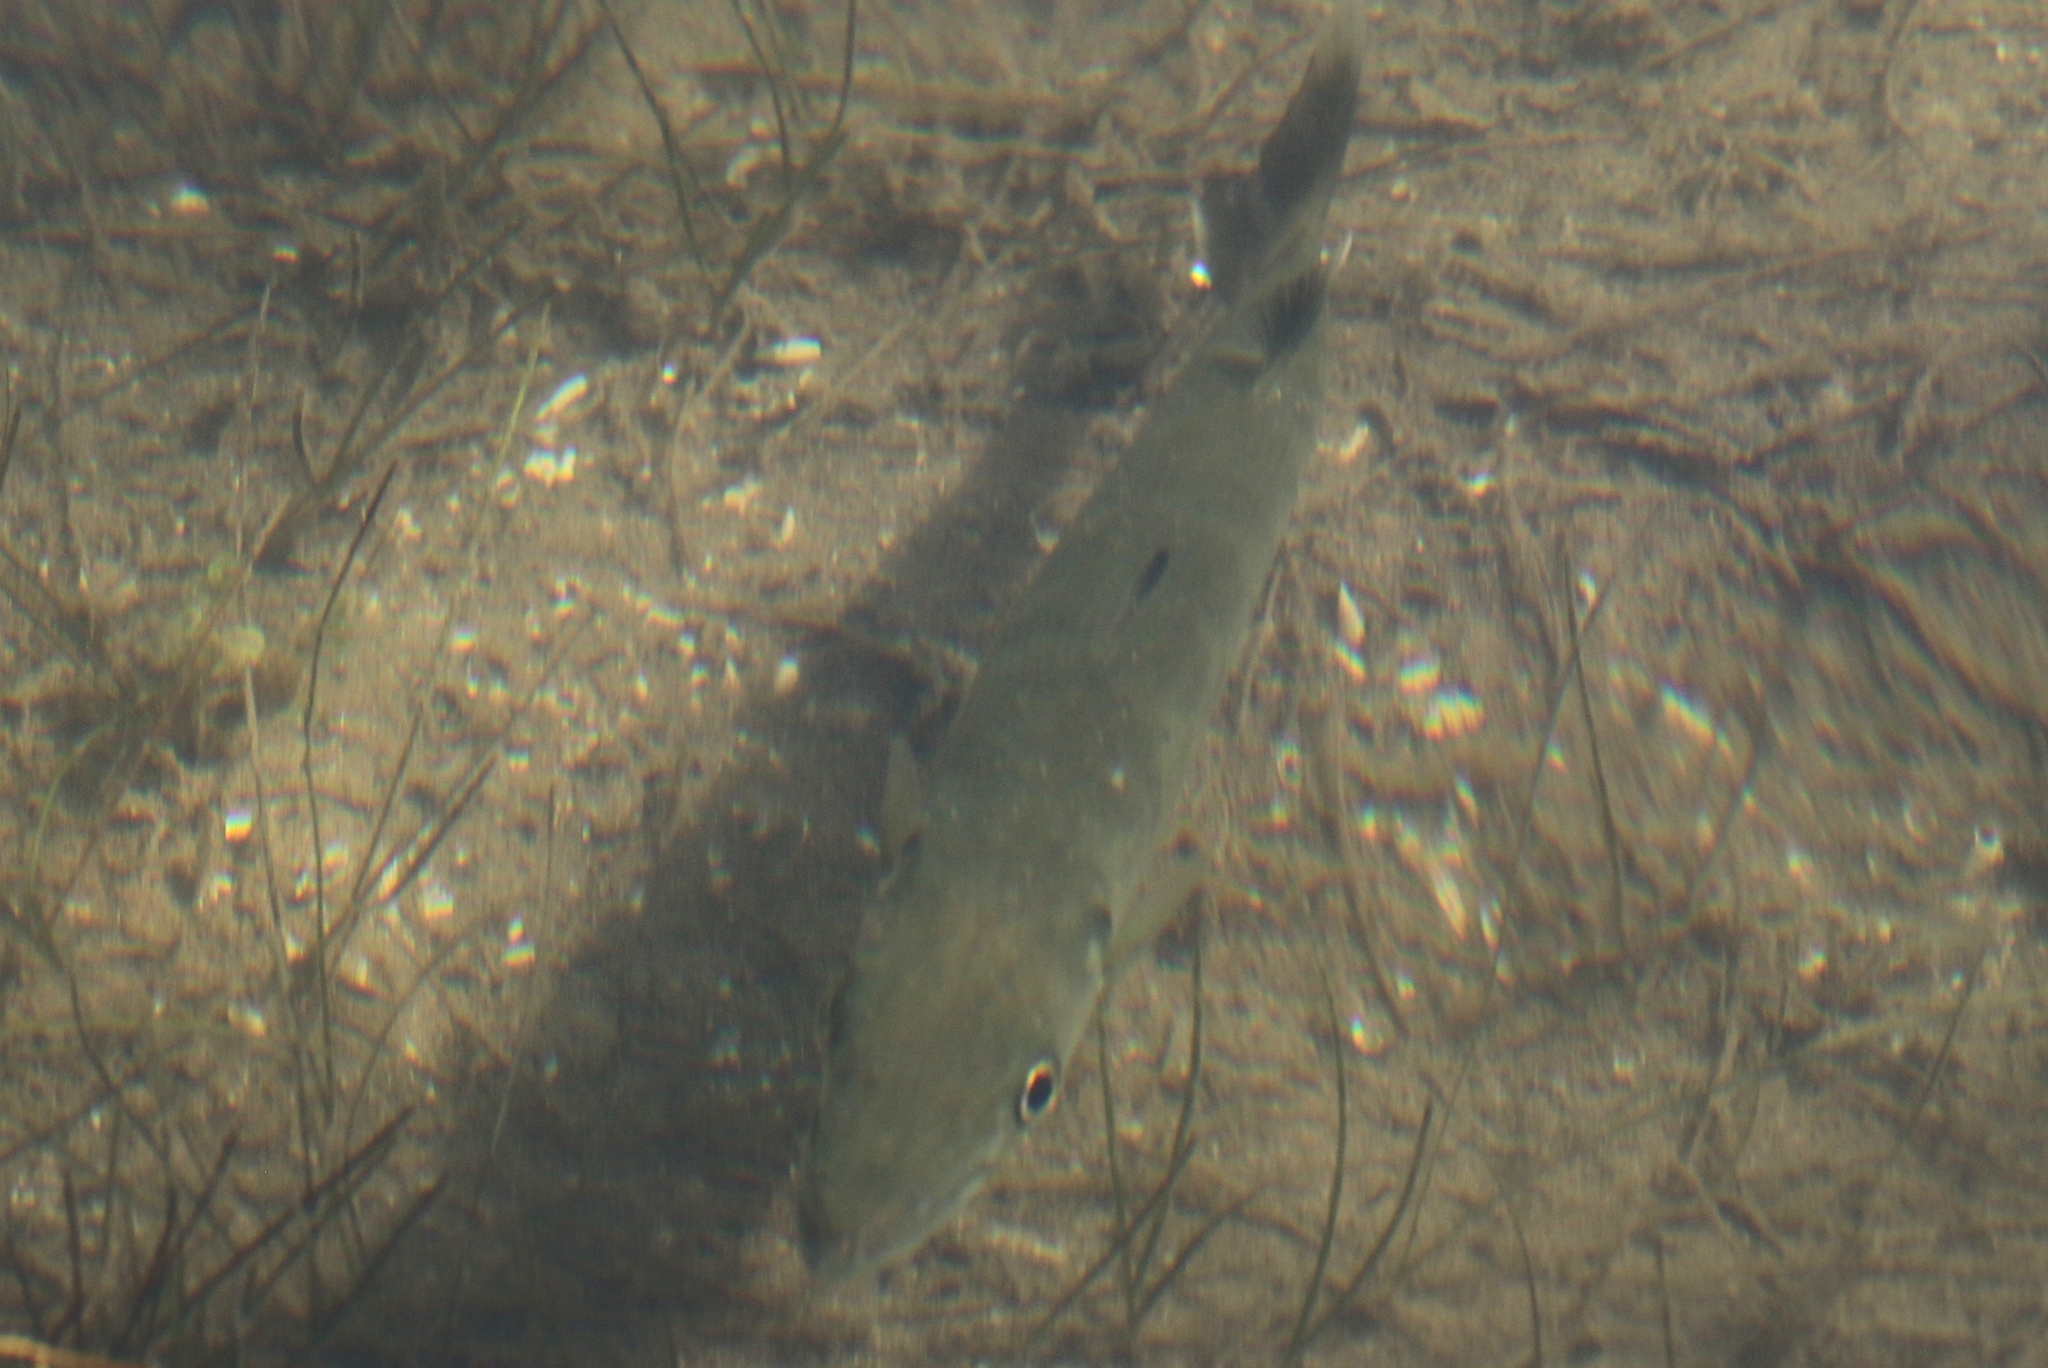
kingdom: Animalia
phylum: Chordata
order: Perciformes
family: Sphyraenidae
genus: Sphyraena
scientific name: Sphyraena barracuda
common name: Great barracuda
